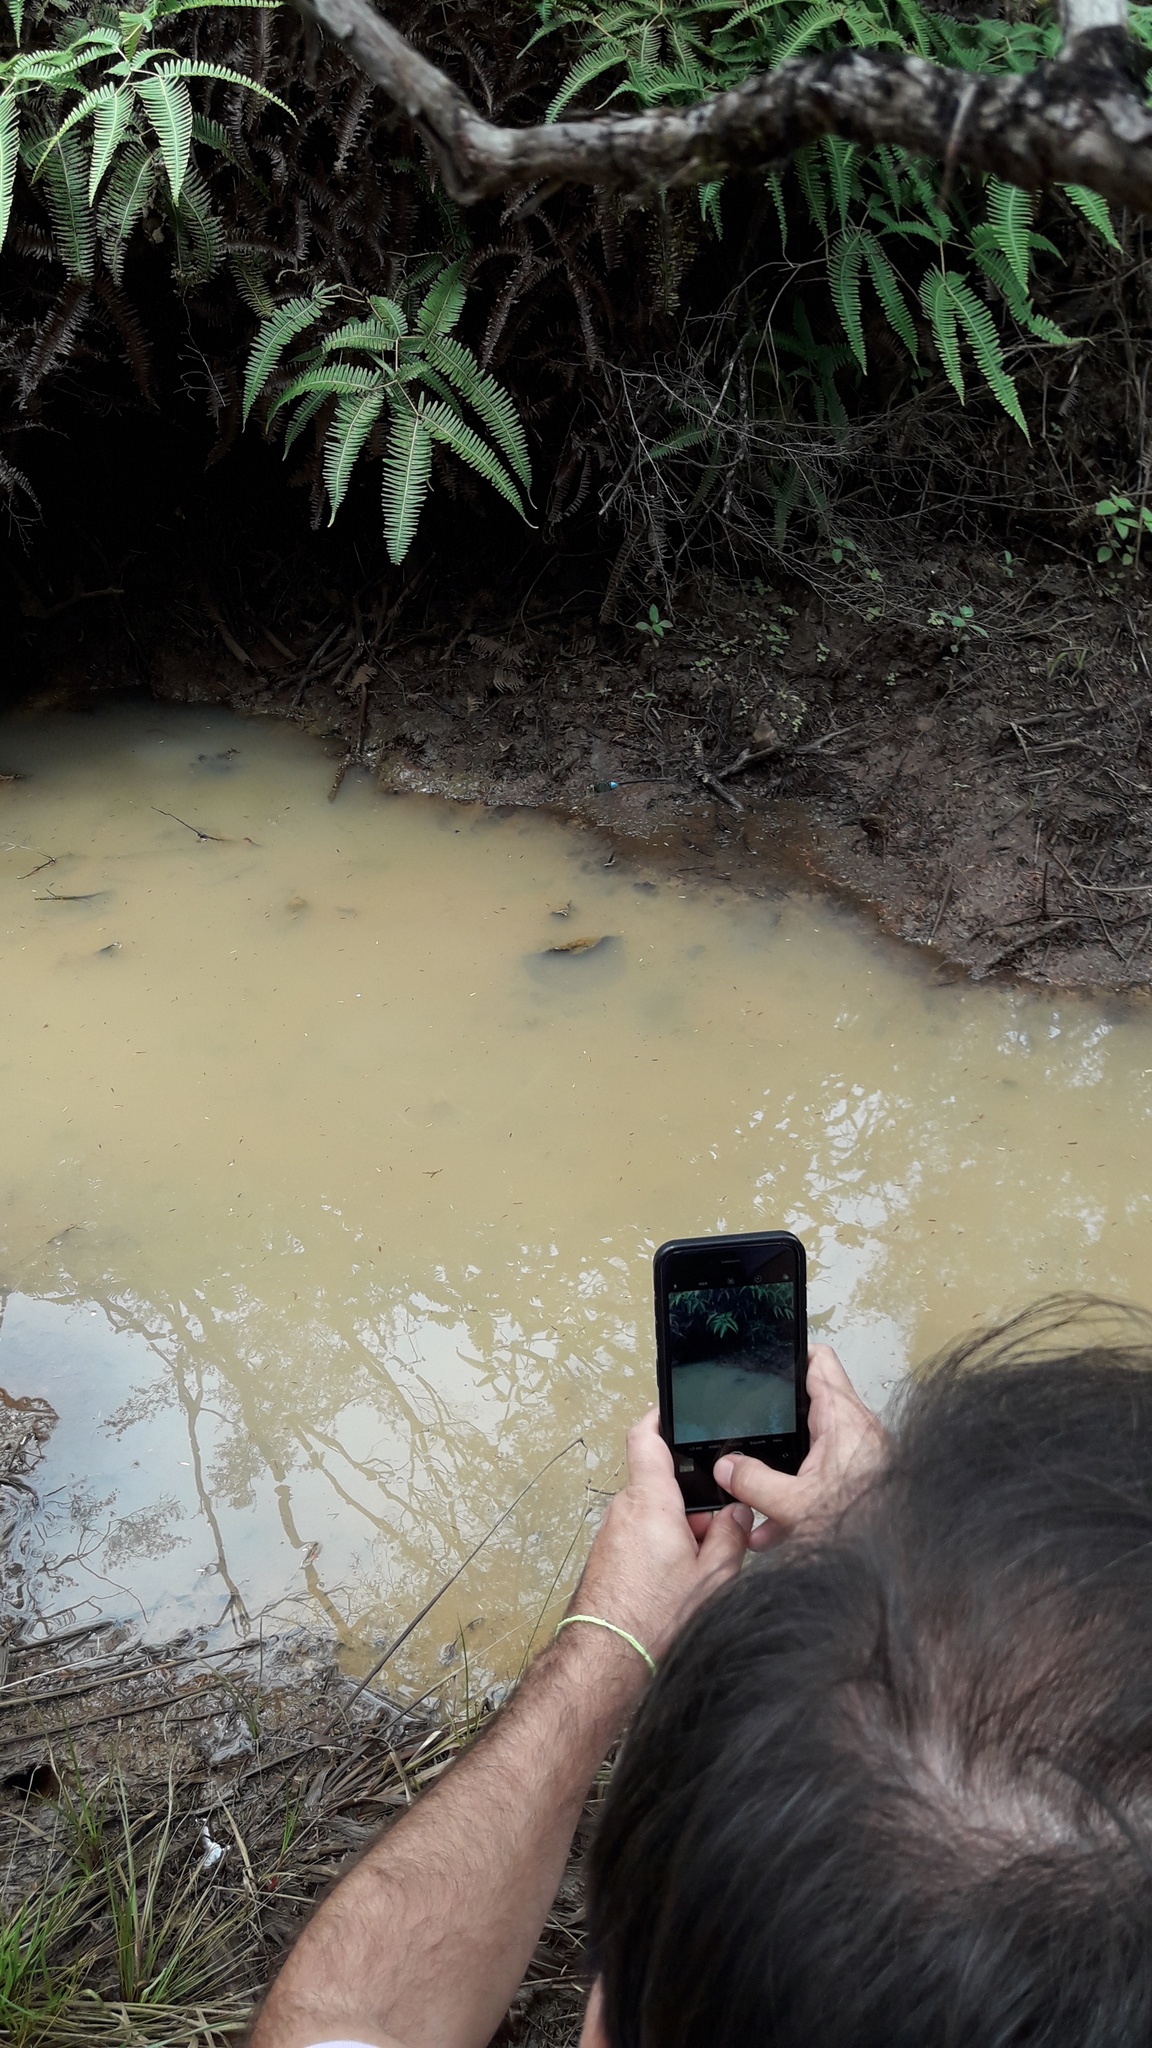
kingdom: Animalia
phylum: Arthropoda
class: Insecta
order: Odonata
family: Aeshnidae
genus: Anax
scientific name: Anax strenuus
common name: Giant hawaiian darner
